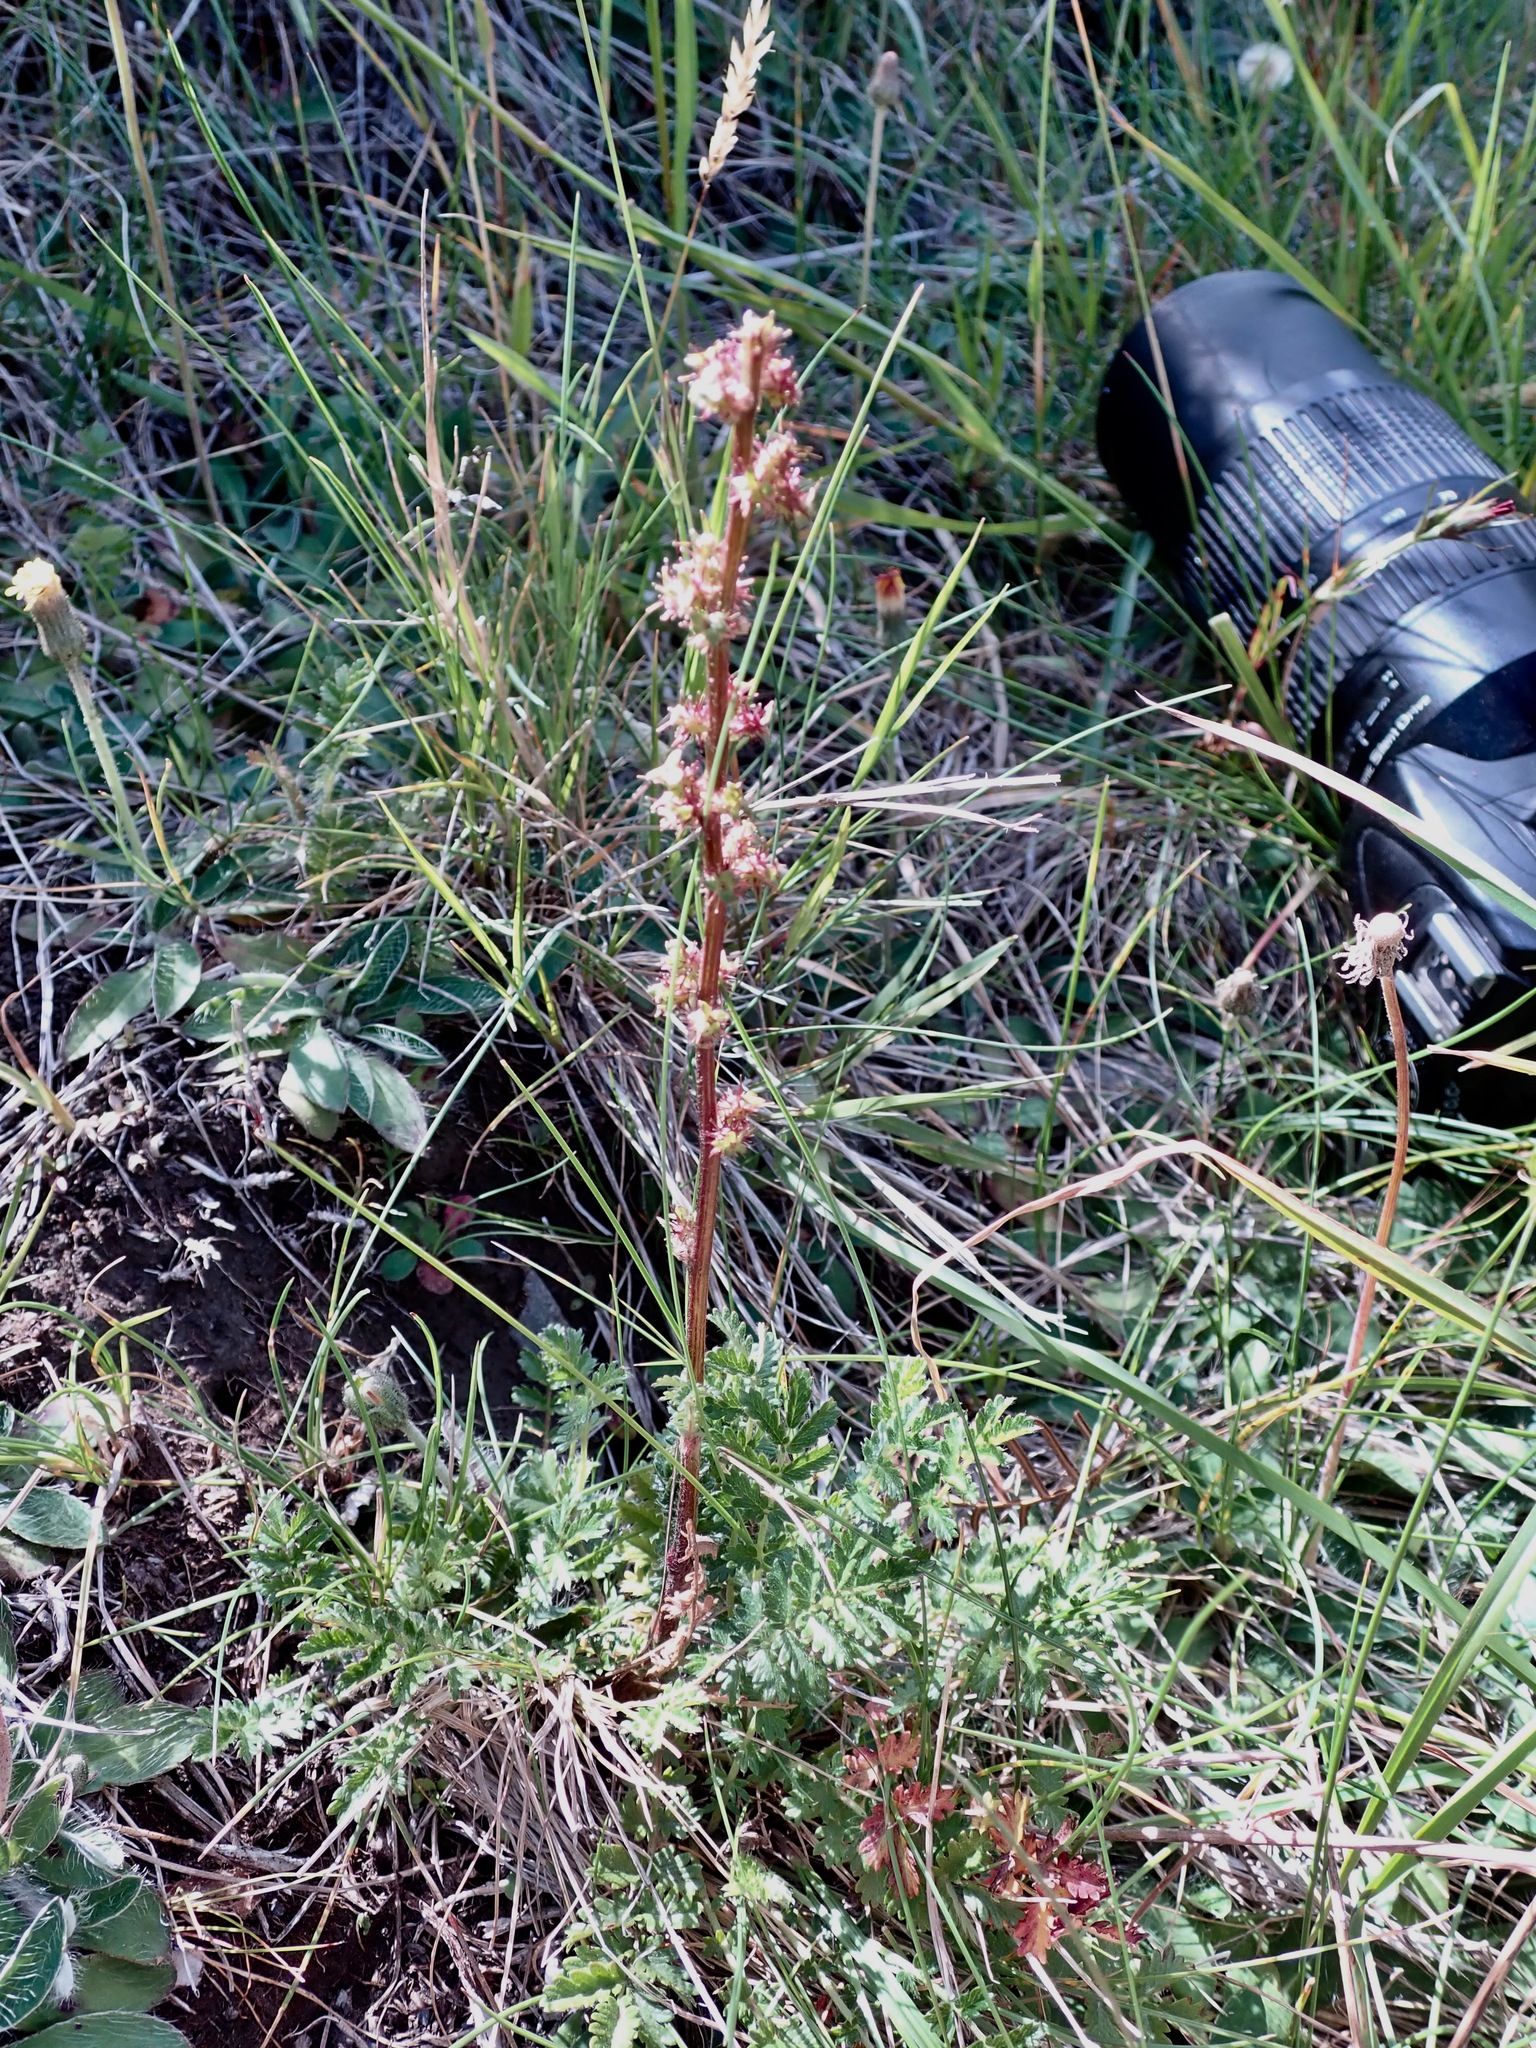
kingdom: Plantae
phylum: Tracheophyta
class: Magnoliopsida
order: Rosales
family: Rosaceae
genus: Acaena
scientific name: Acaena agnipila
